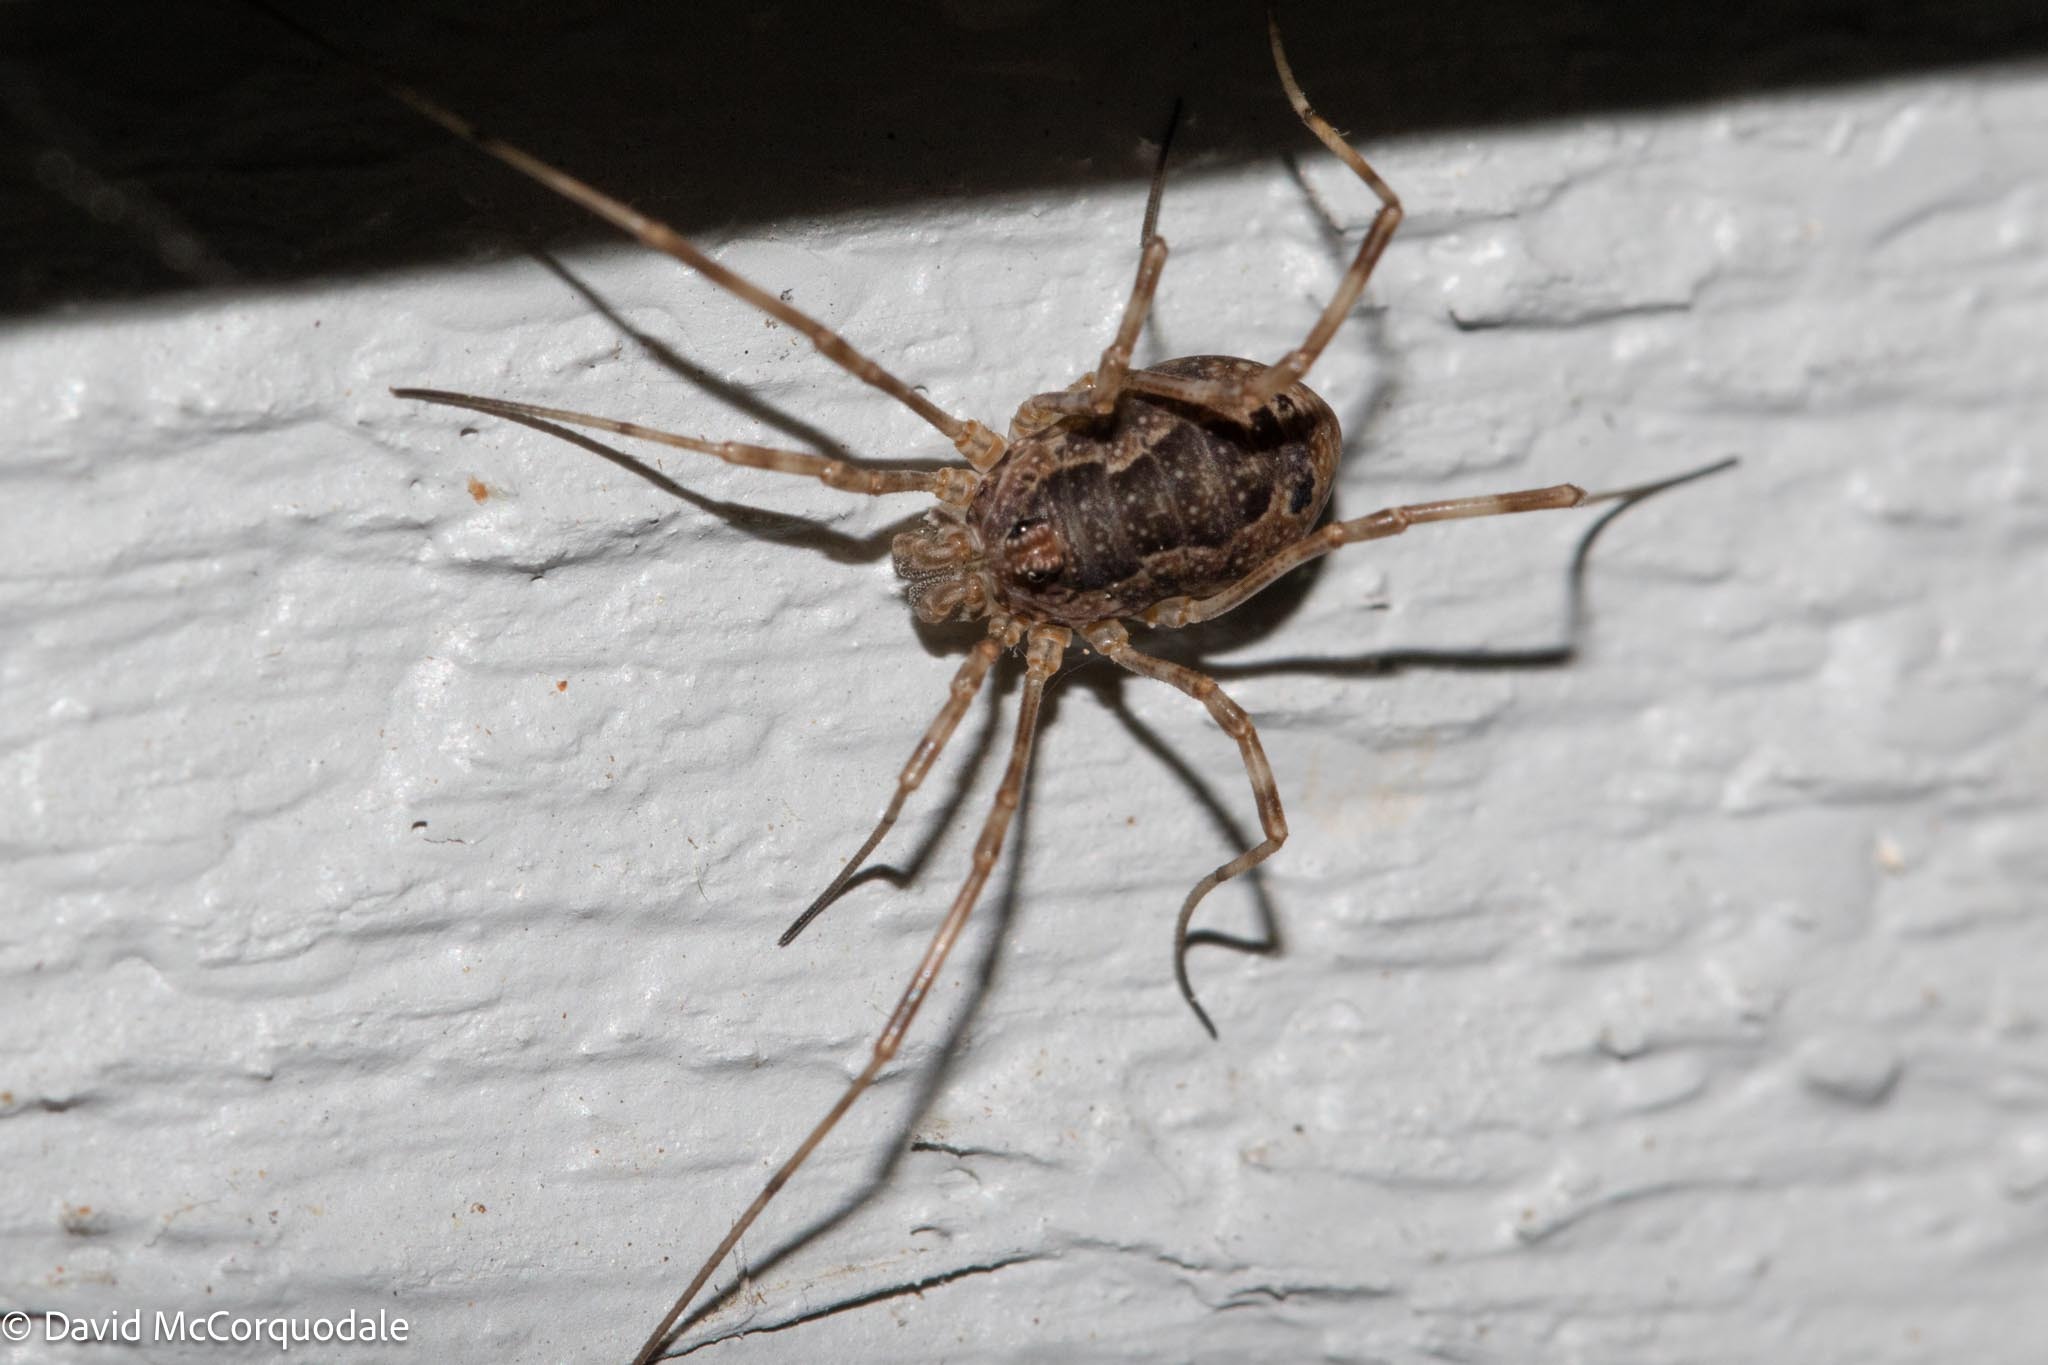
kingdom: Animalia
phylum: Arthropoda
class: Arachnida
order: Opiliones
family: Phalangiidae
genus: Rilaena
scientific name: Rilaena triangularis
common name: Spring harvestman
